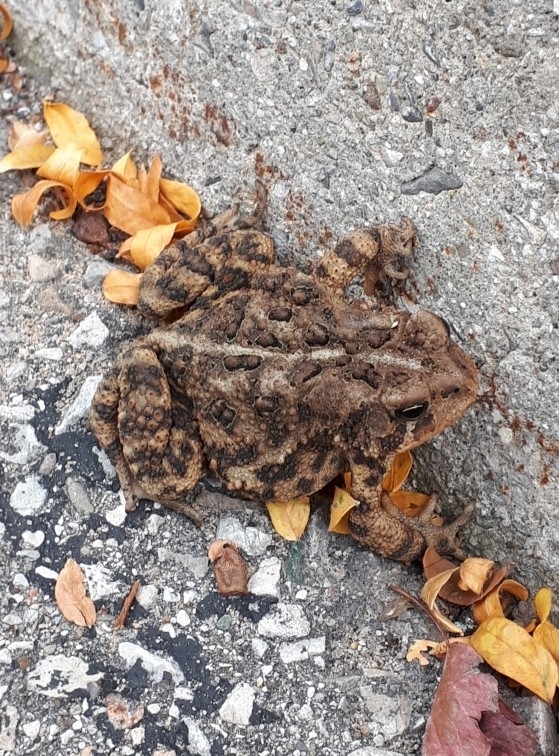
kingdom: Animalia
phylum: Chordata
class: Amphibia
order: Anura
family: Bufonidae
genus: Anaxyrus
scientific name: Anaxyrus americanus
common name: American toad
